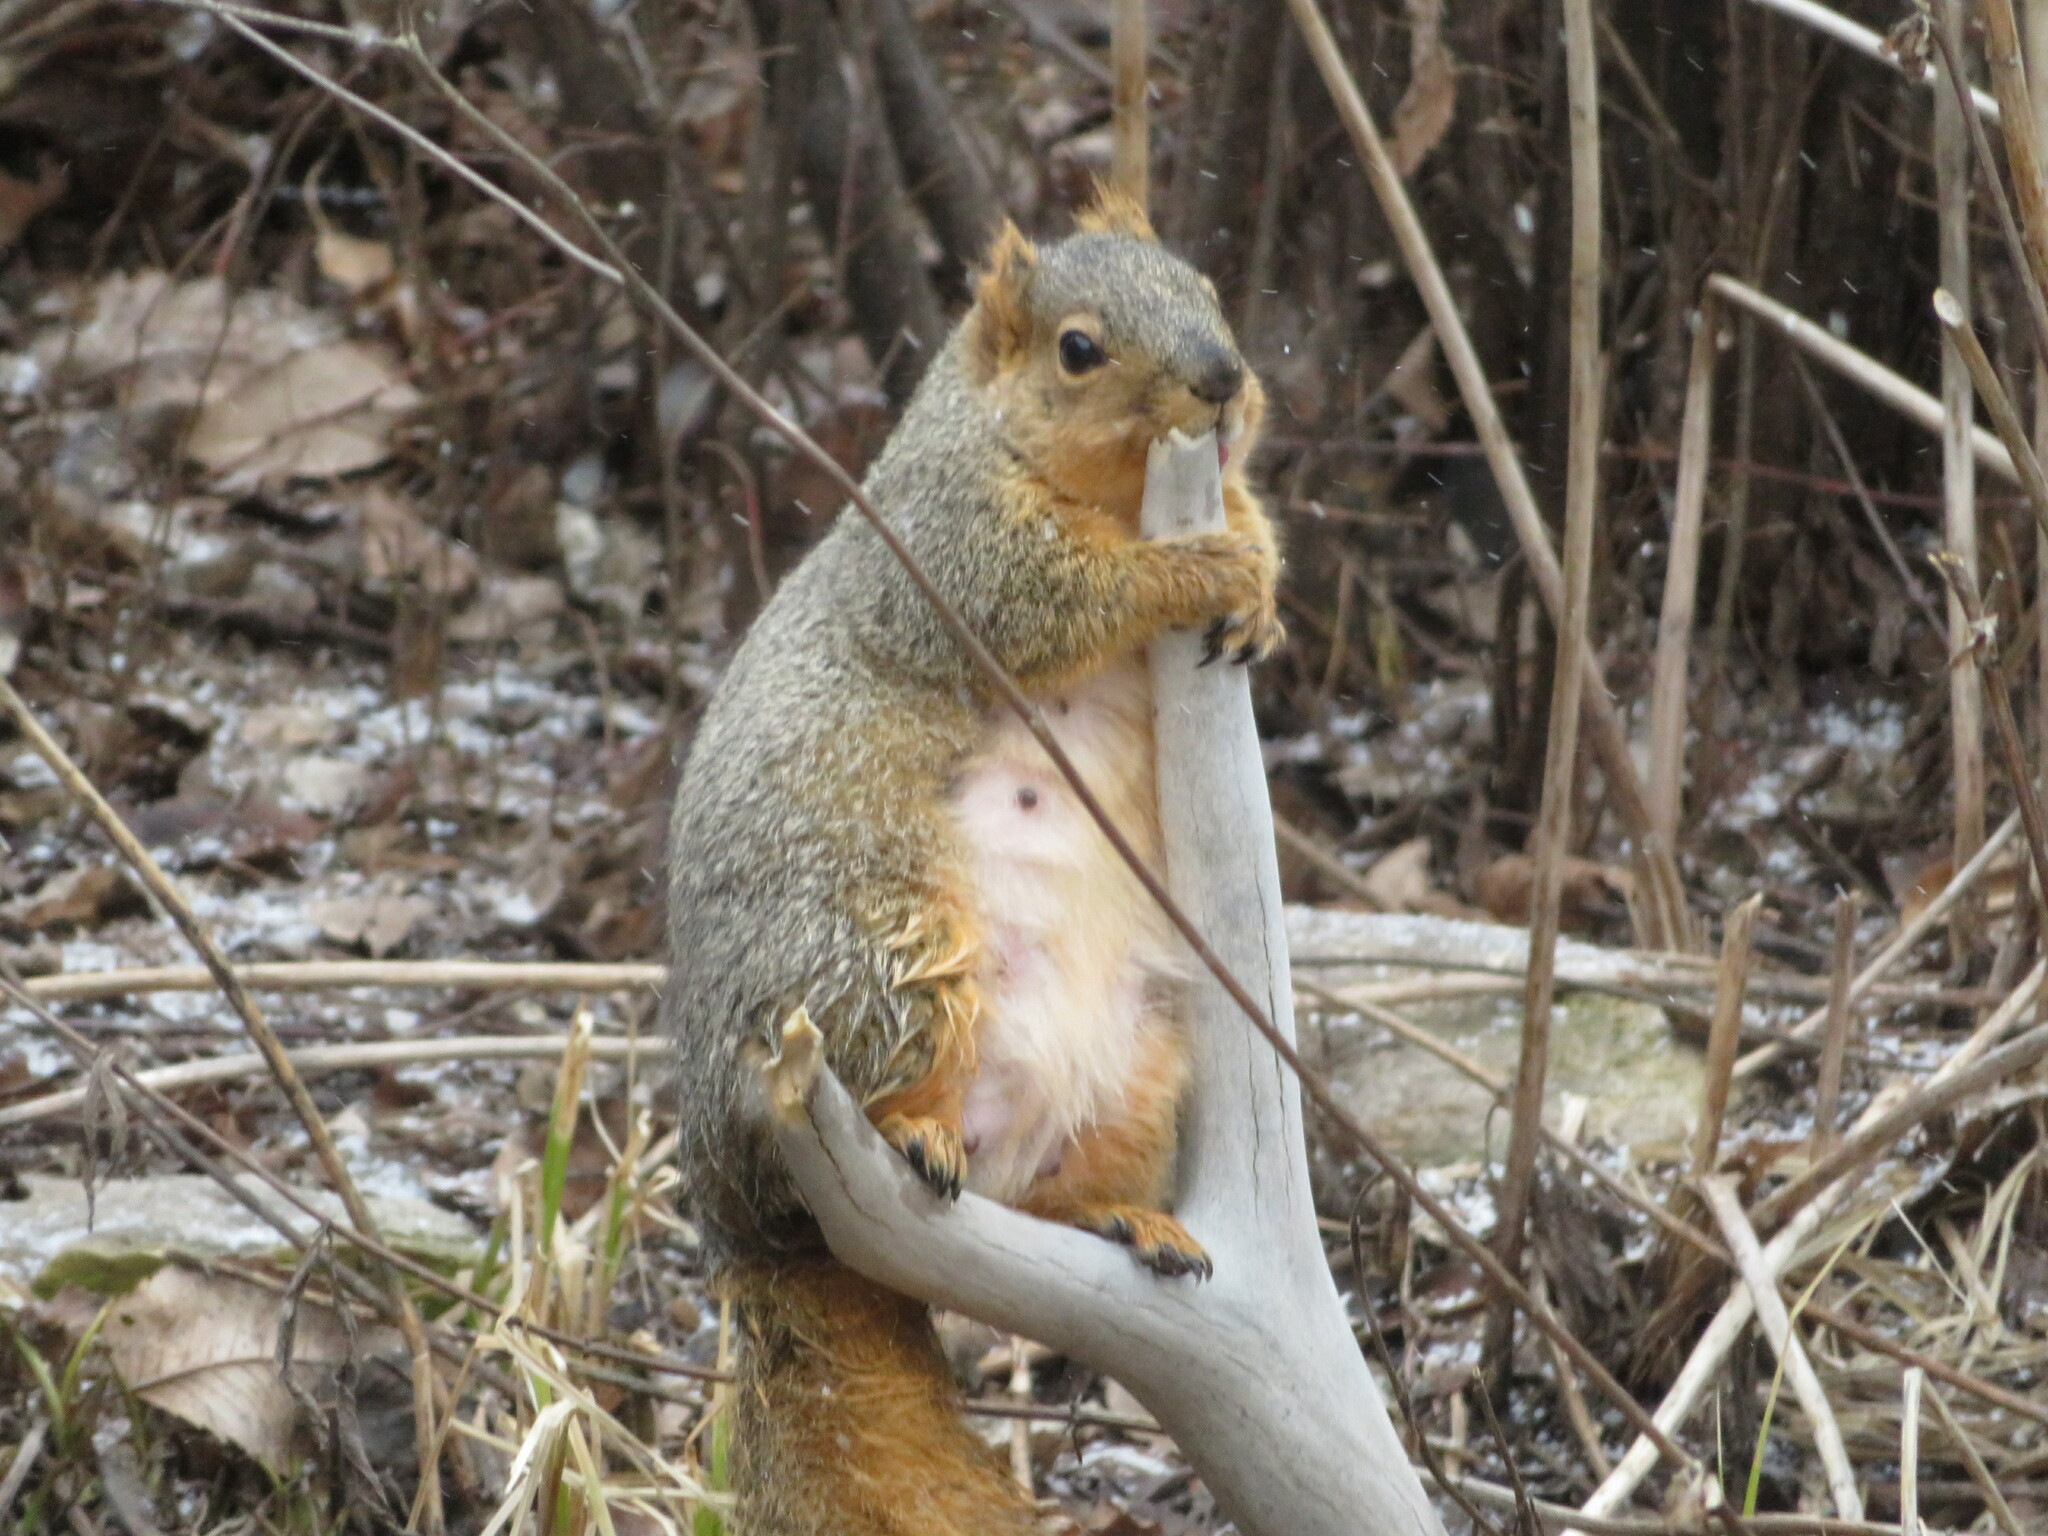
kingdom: Animalia
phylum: Chordata
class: Mammalia
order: Rodentia
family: Sciuridae
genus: Sciurus
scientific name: Sciurus niger
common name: Fox squirrel
